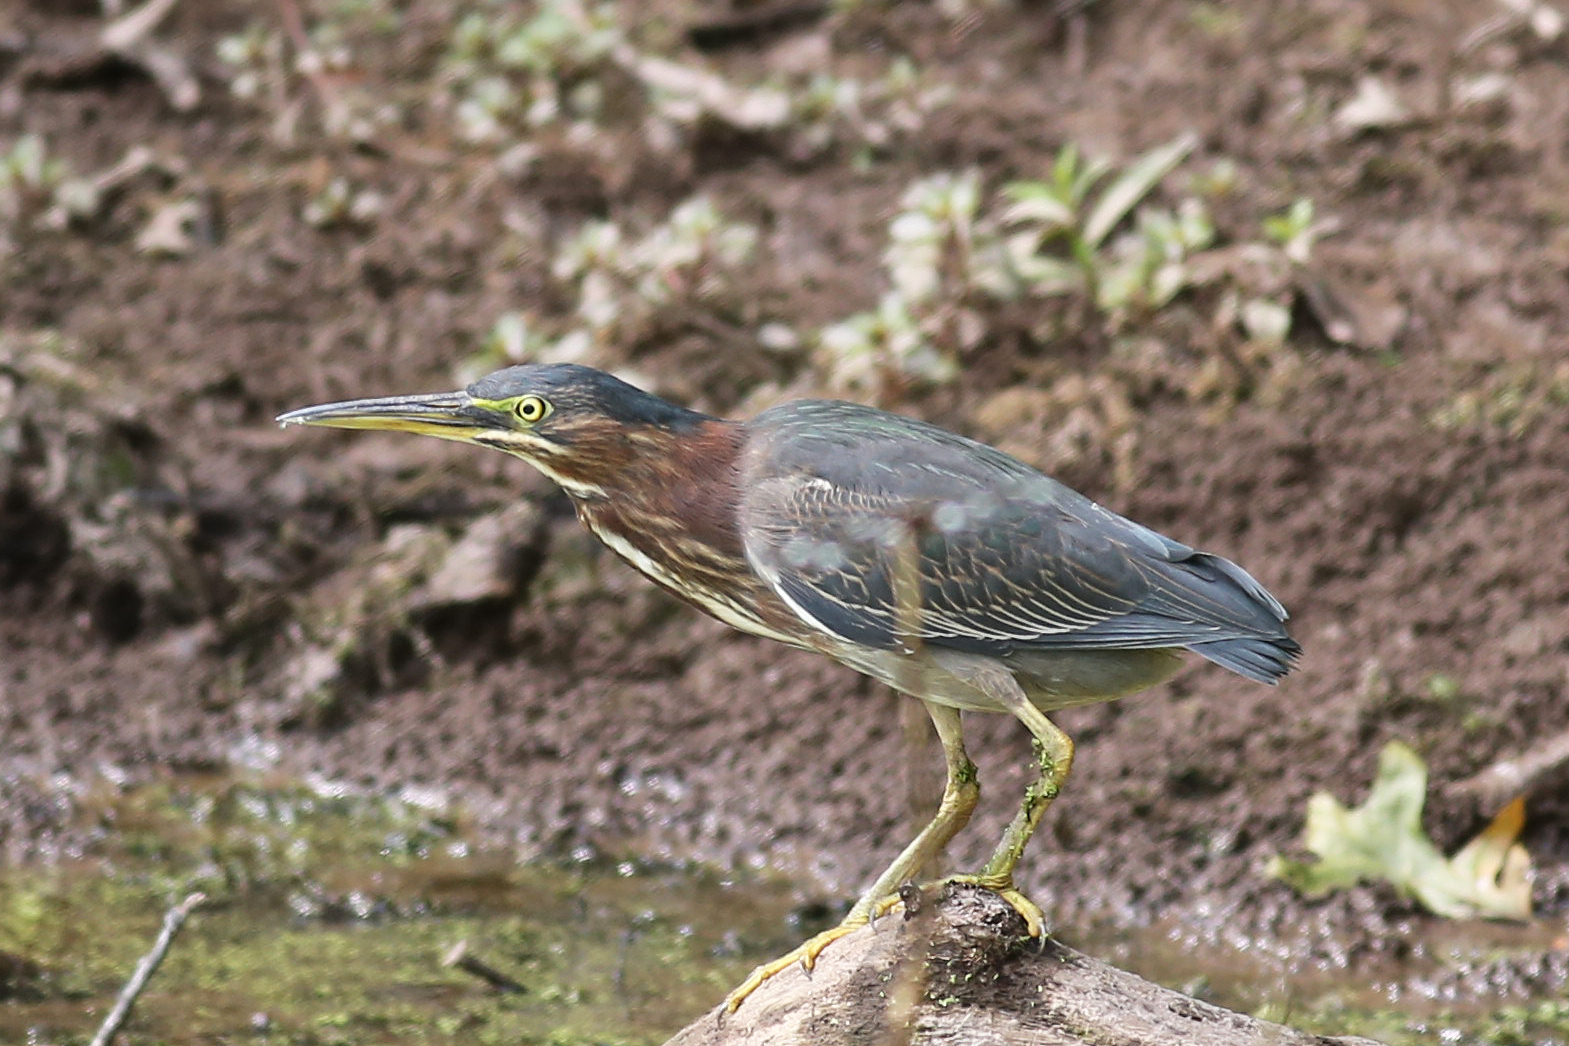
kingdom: Animalia
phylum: Chordata
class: Aves
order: Pelecaniformes
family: Ardeidae
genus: Butorides
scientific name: Butorides virescens
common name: Green heron
